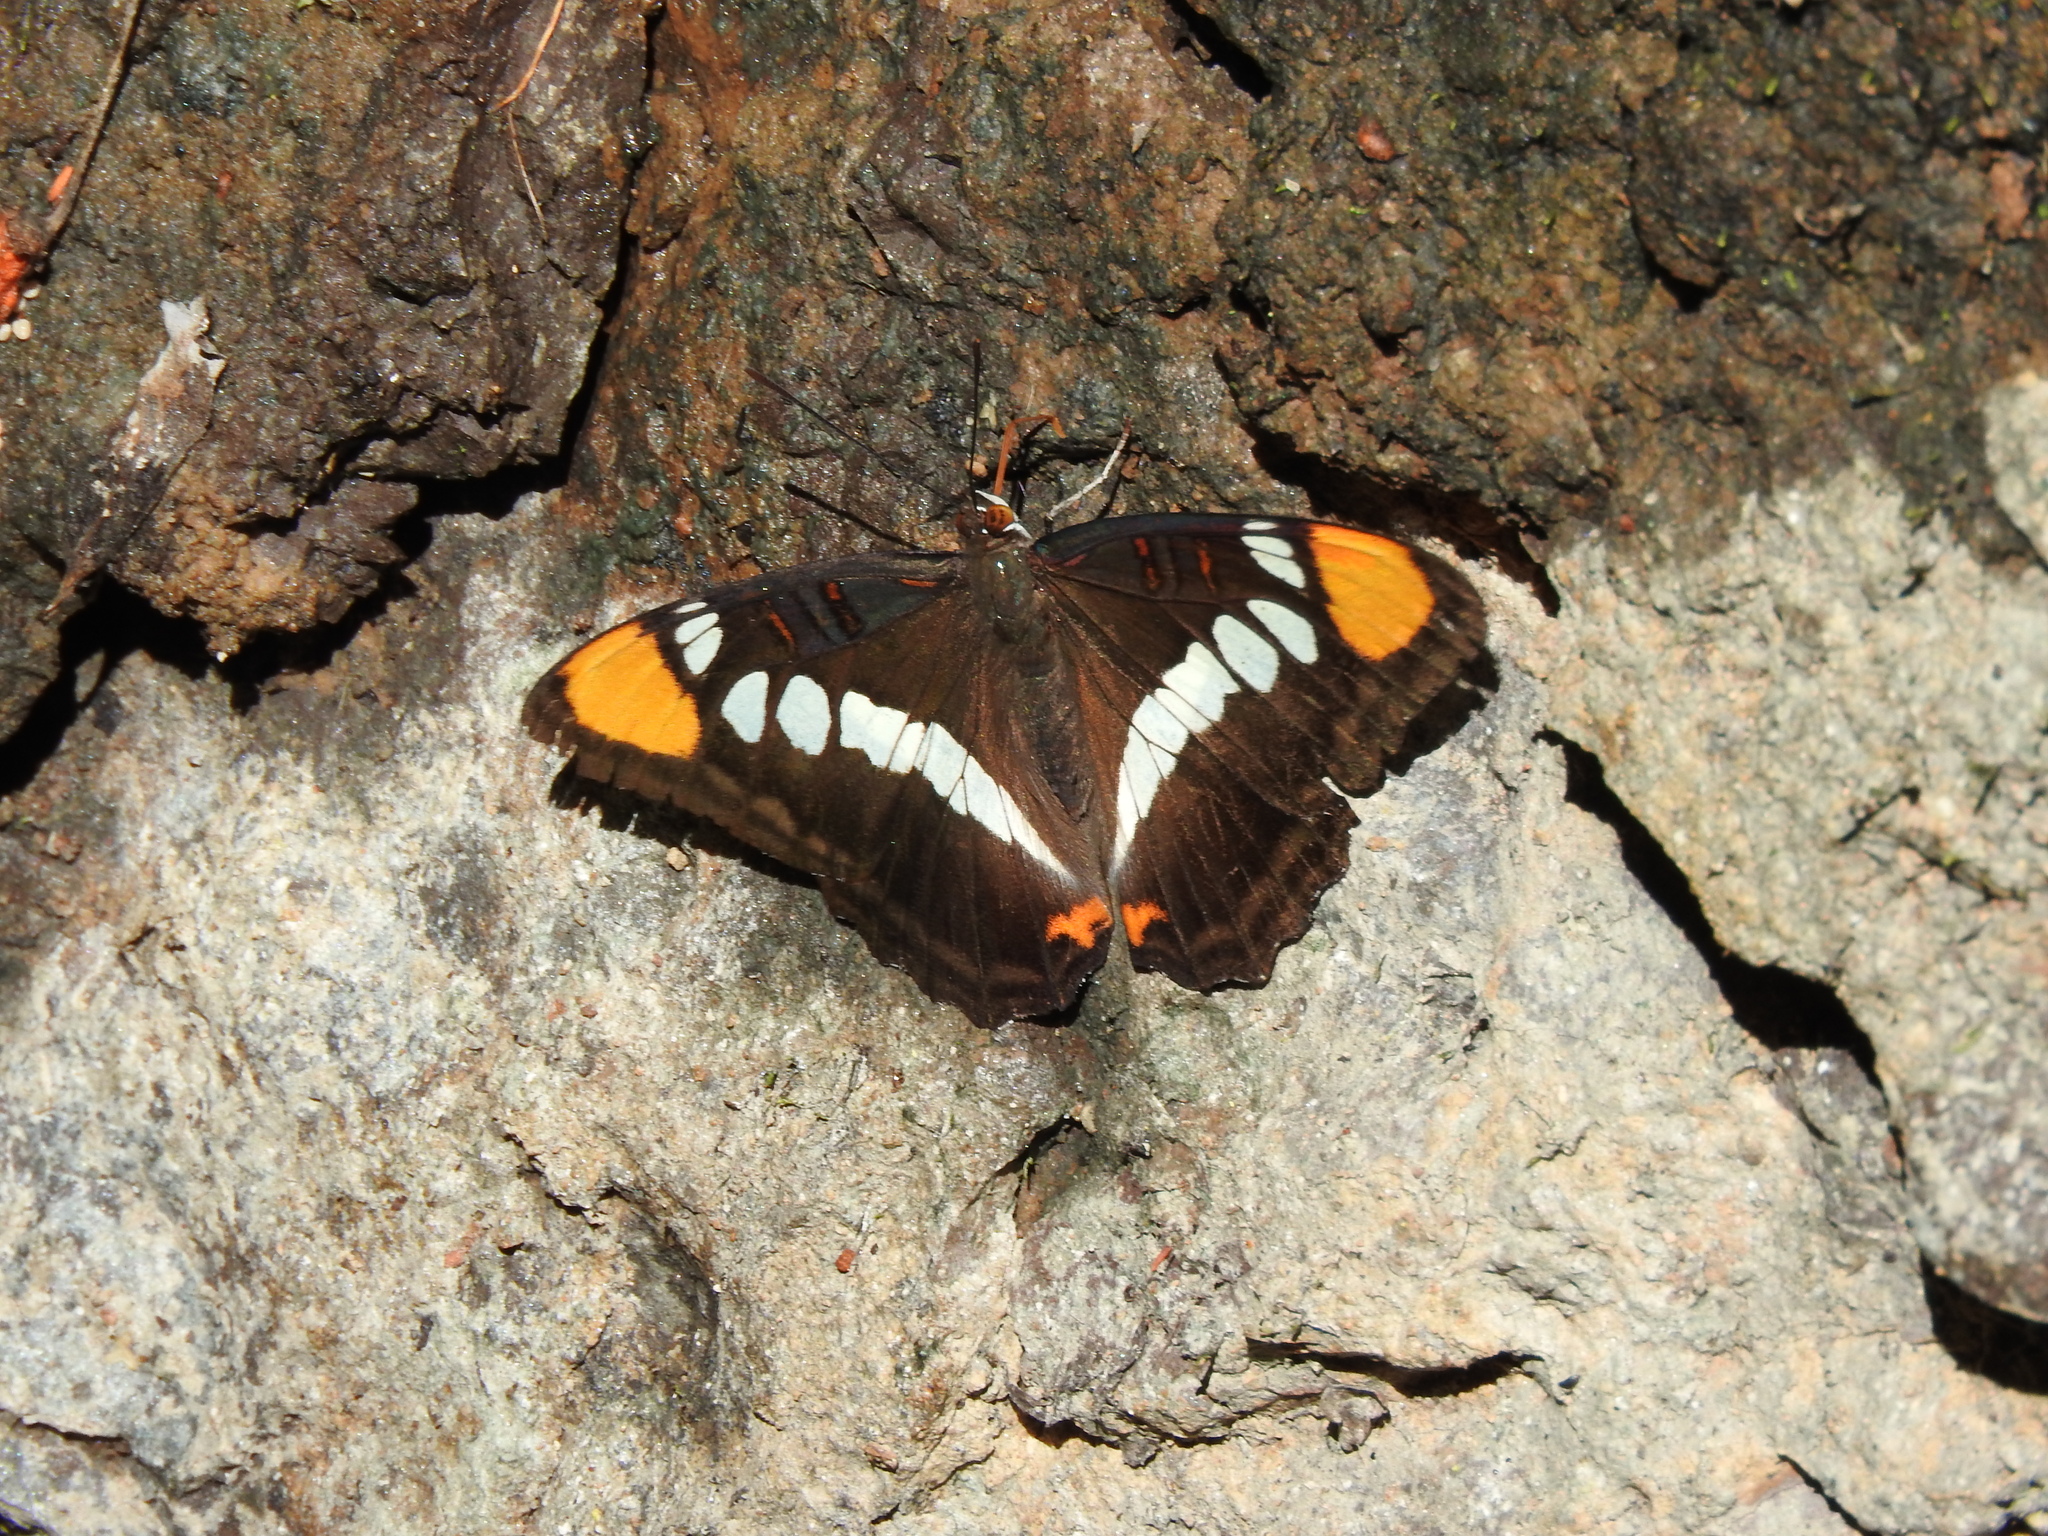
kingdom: Animalia
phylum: Arthropoda
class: Insecta
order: Lepidoptera
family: Nymphalidae
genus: Limenitis
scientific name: Limenitis bredowii
